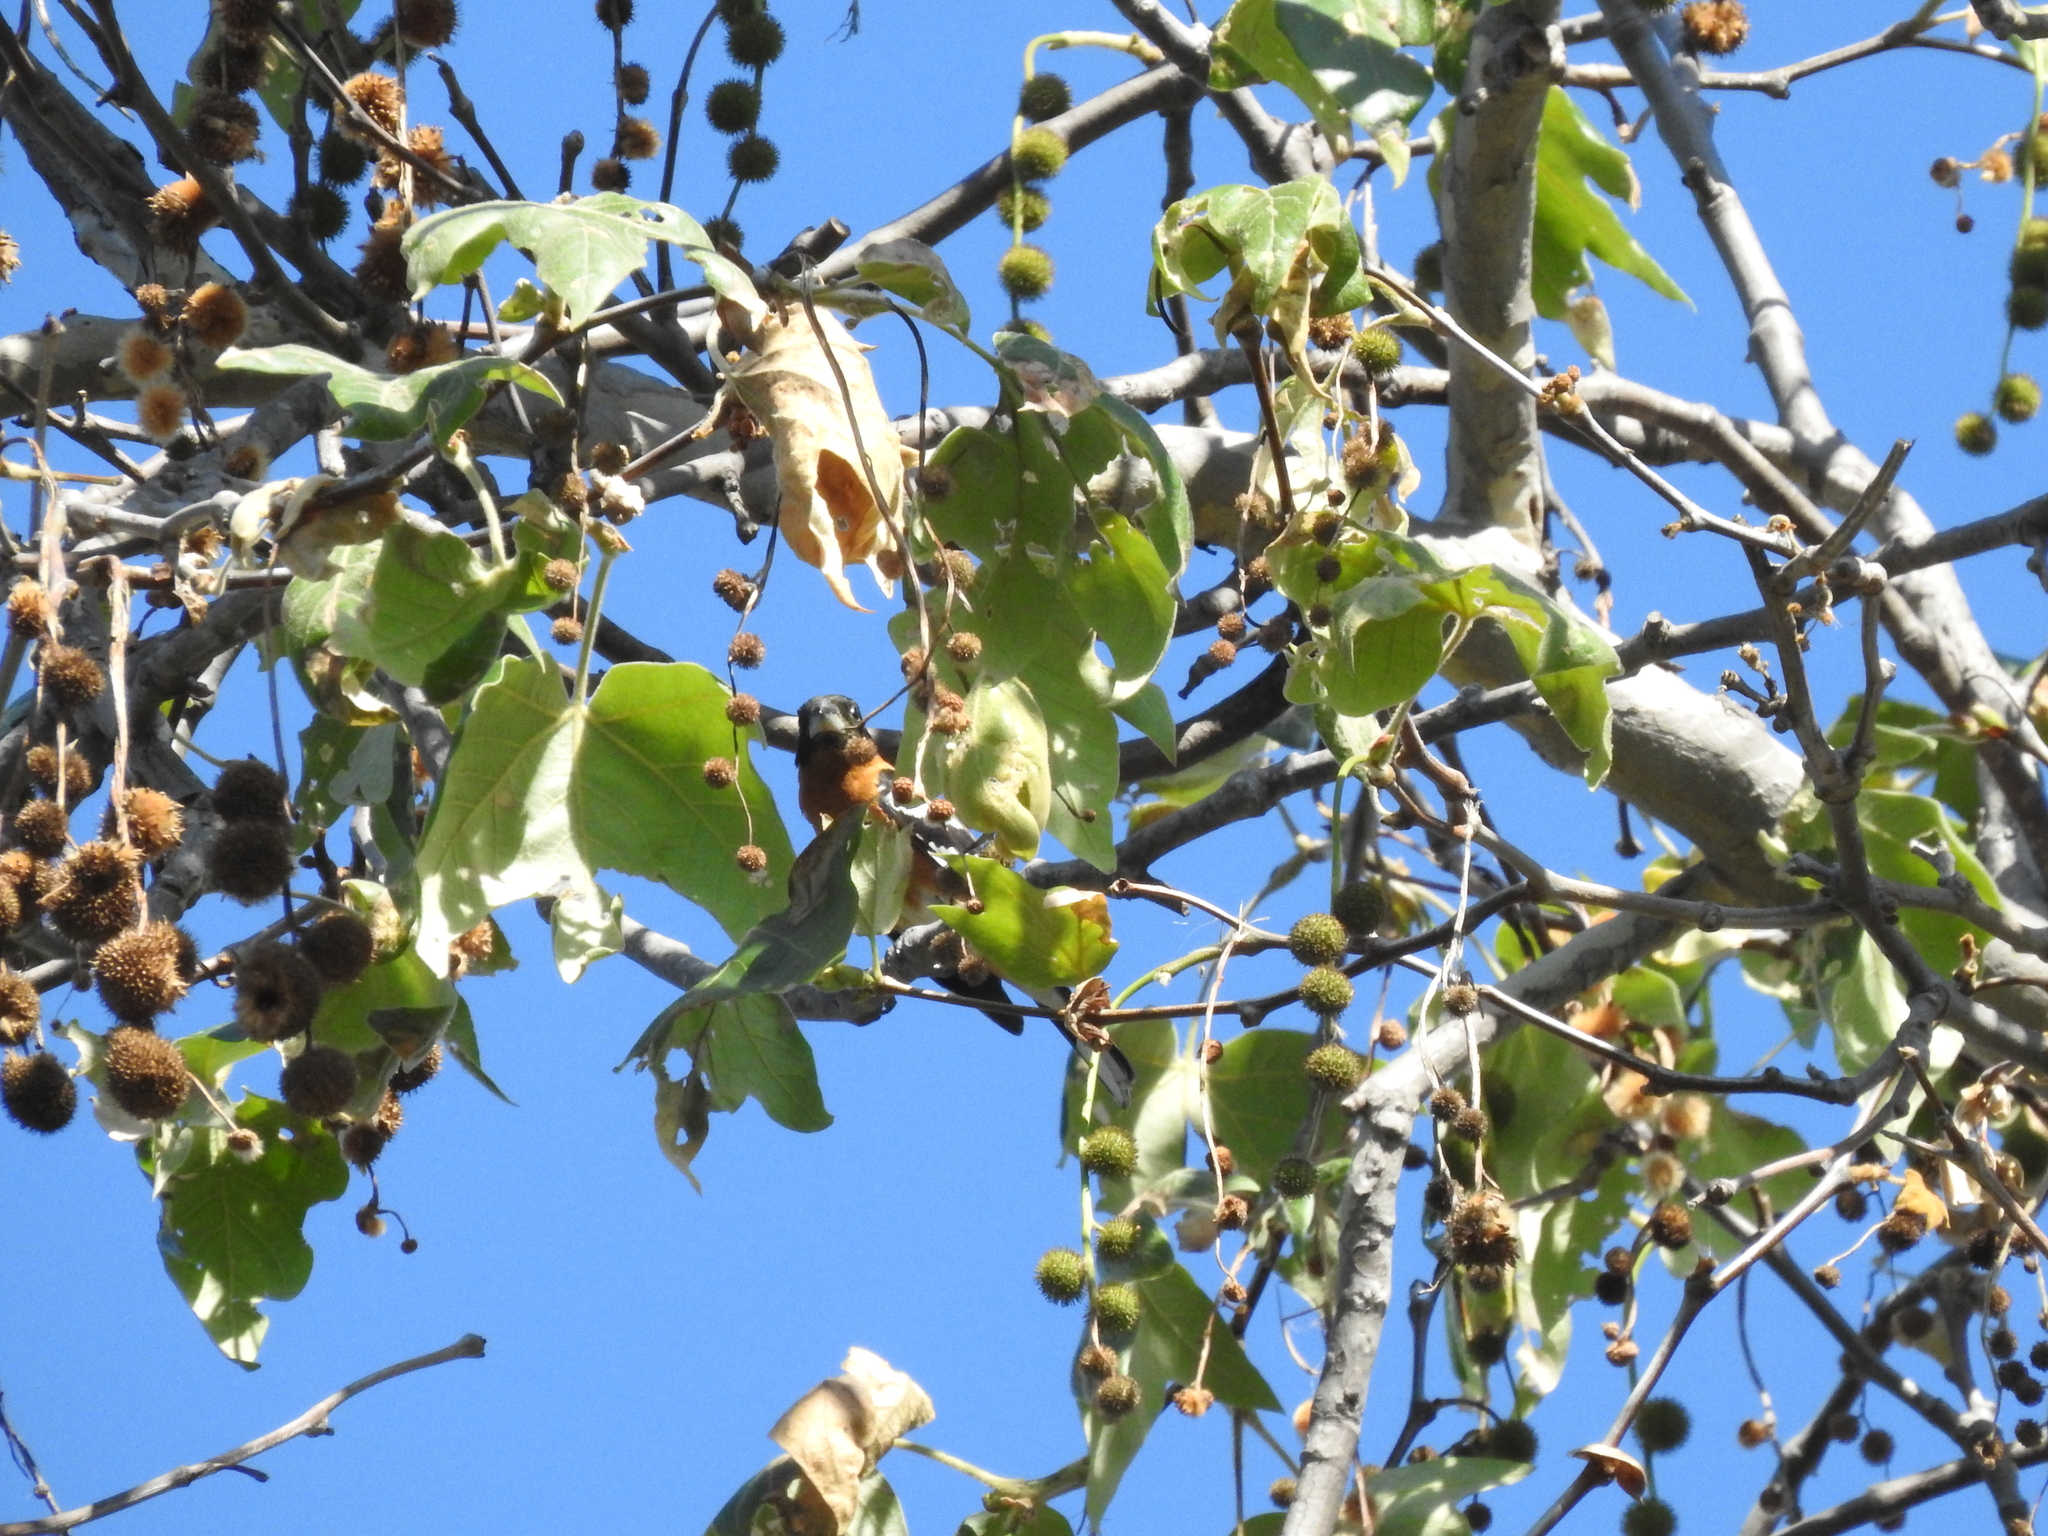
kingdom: Animalia
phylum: Chordata
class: Aves
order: Passeriformes
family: Cardinalidae
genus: Pheucticus
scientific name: Pheucticus melanocephalus
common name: Black-headed grosbeak
